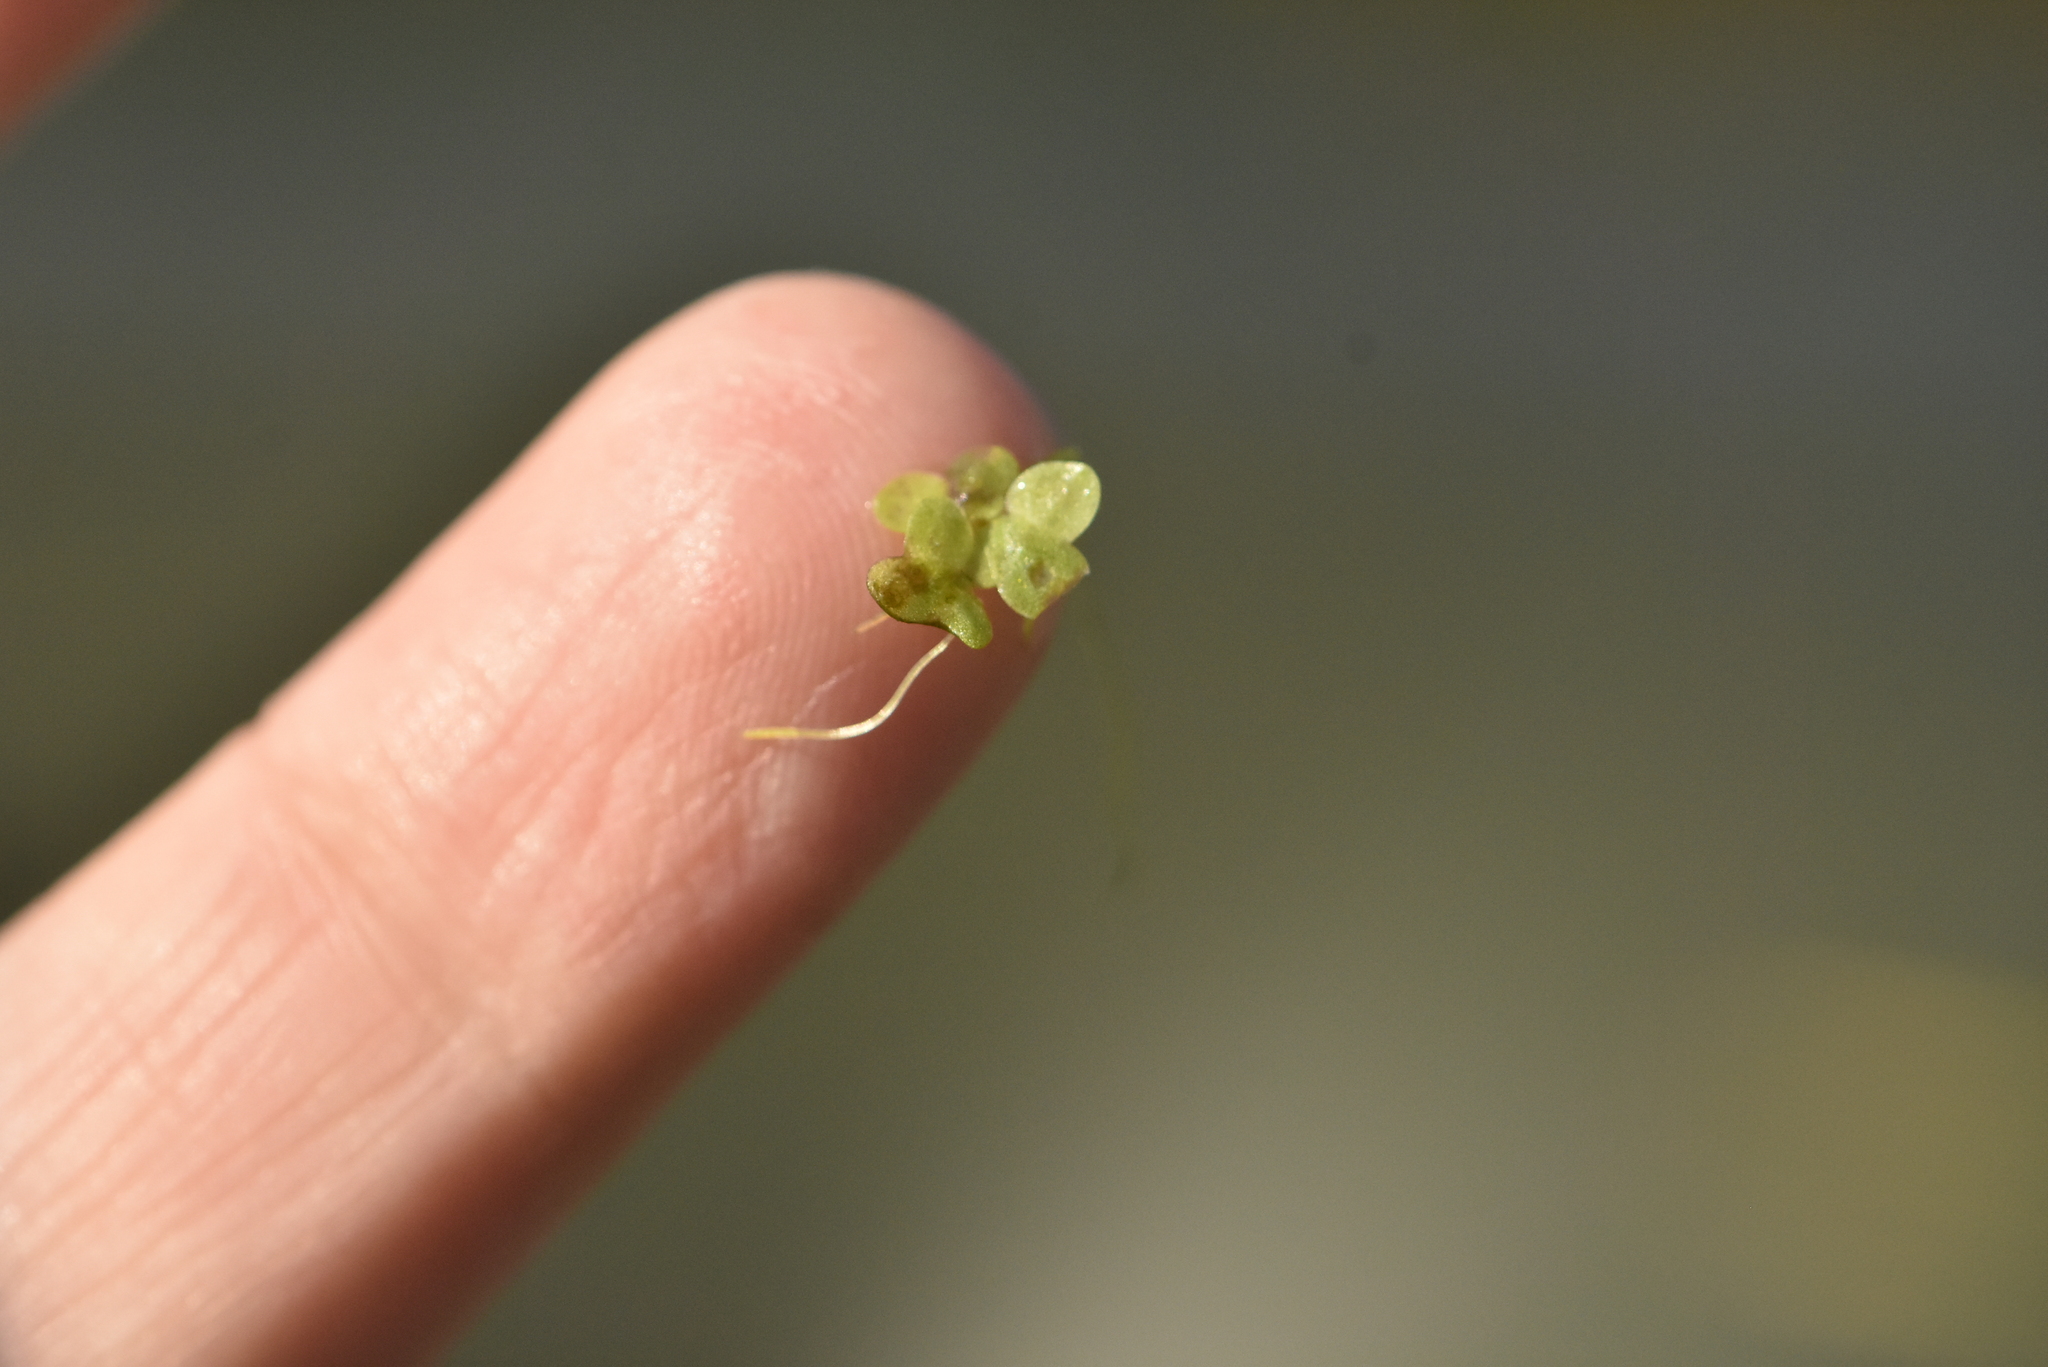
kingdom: Plantae
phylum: Tracheophyta
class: Liliopsida
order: Alismatales
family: Araceae
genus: Lemna
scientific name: Lemna minor
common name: Common duckweed
